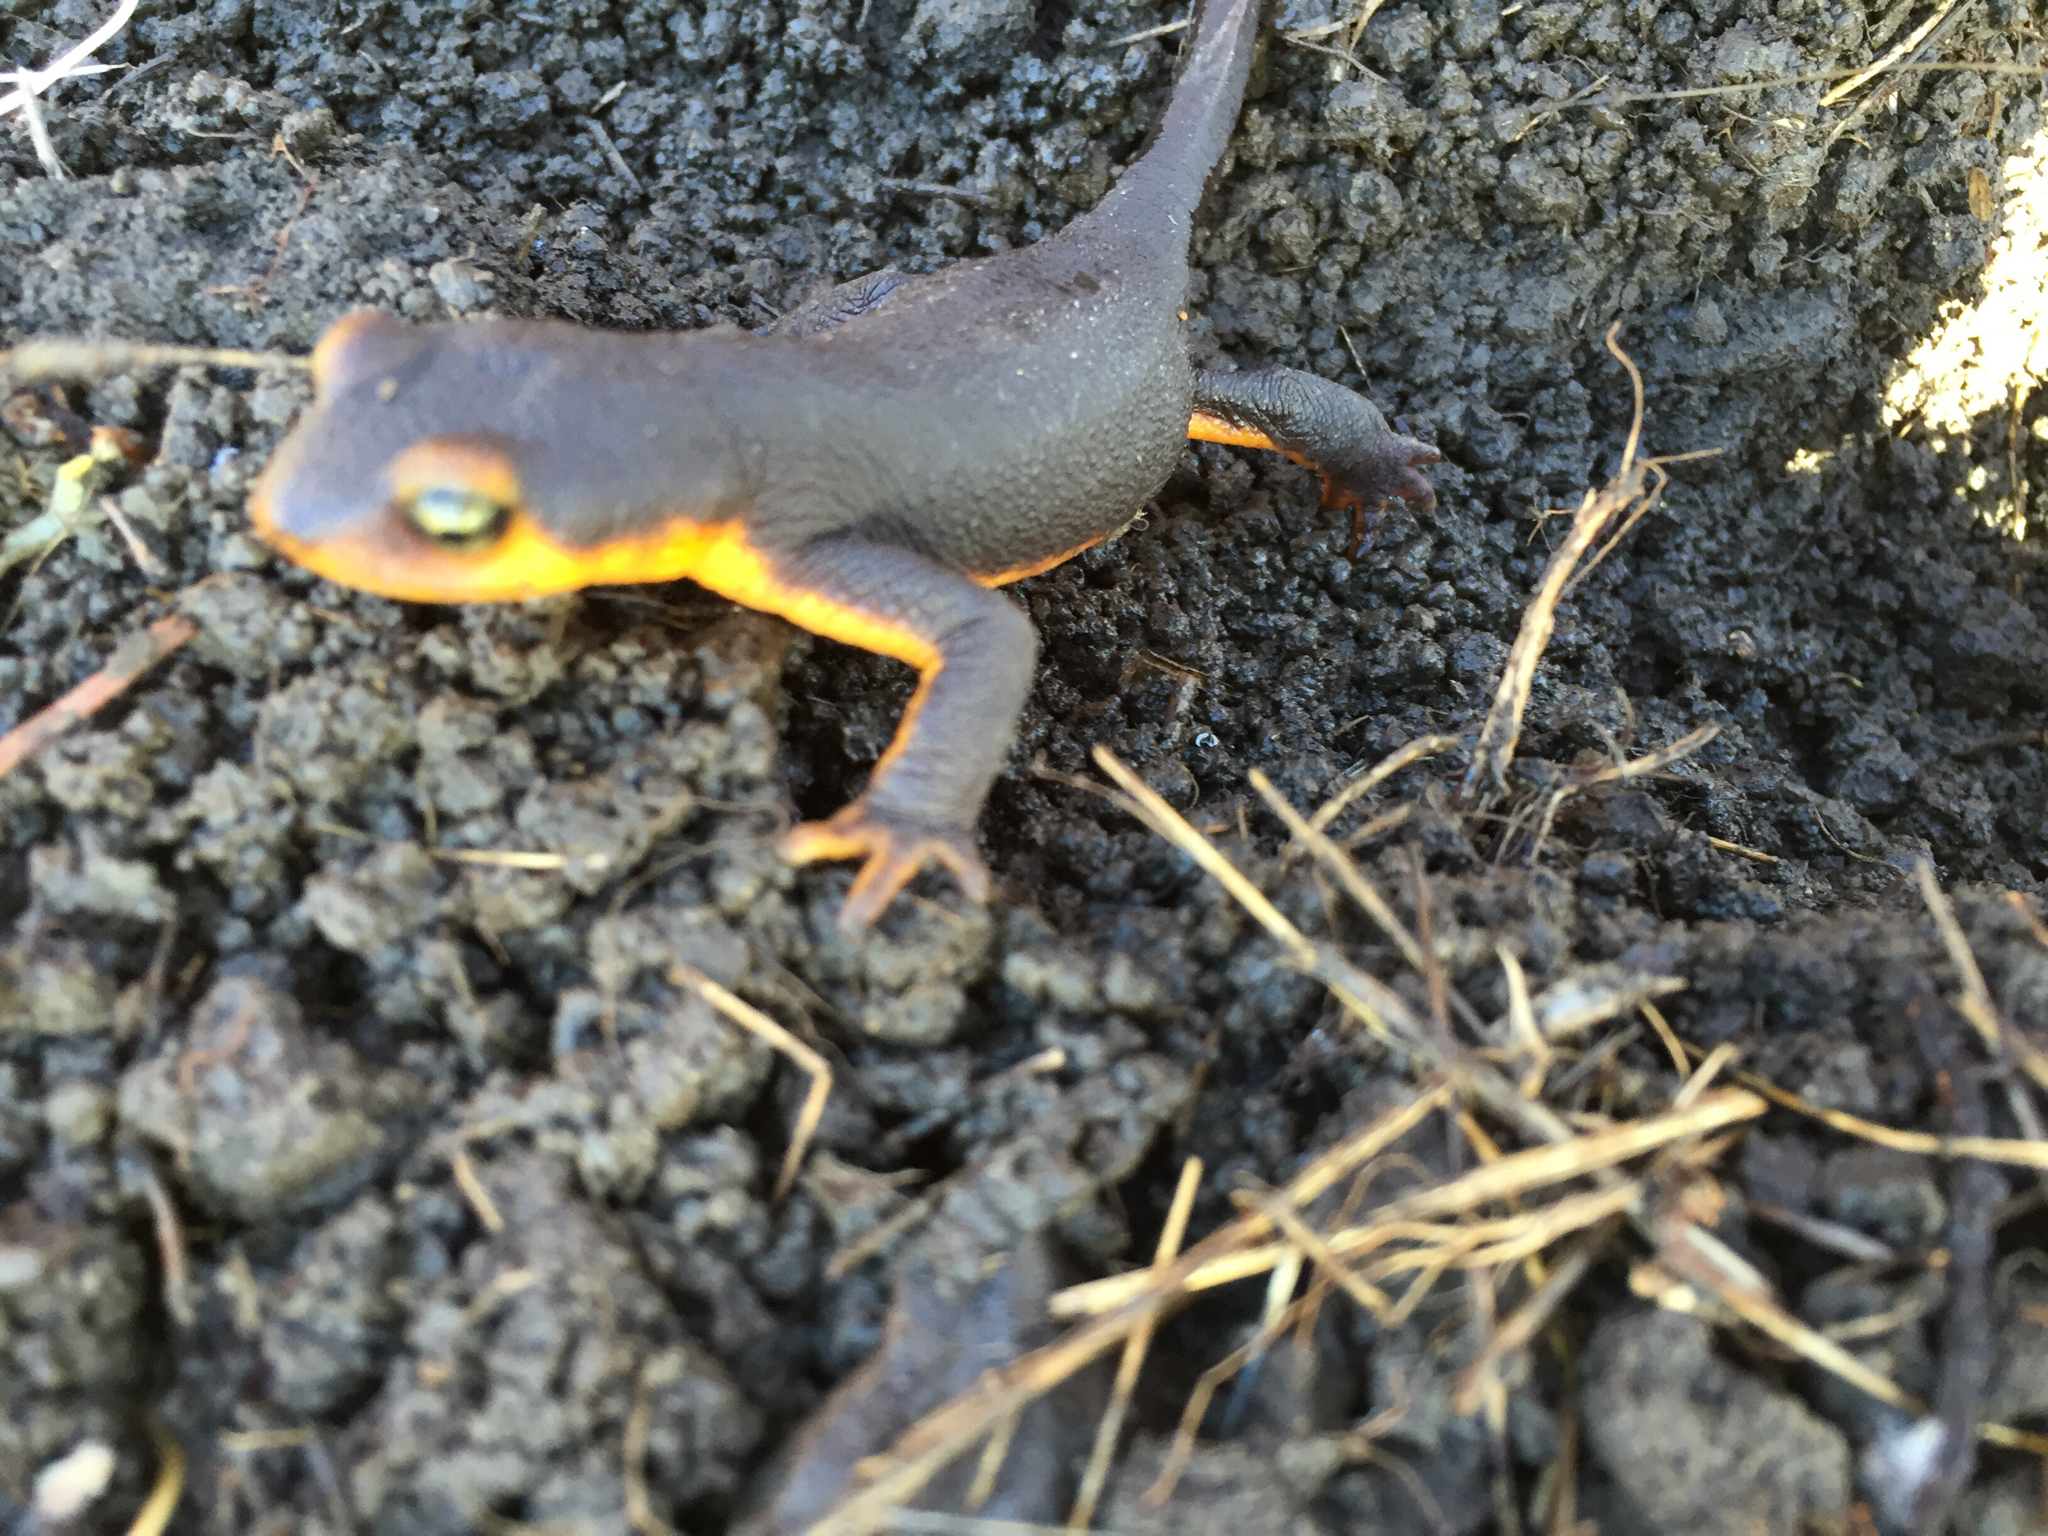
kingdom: Animalia
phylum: Chordata
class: Amphibia
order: Caudata
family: Salamandridae
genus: Taricha
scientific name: Taricha torosa
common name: California newt
